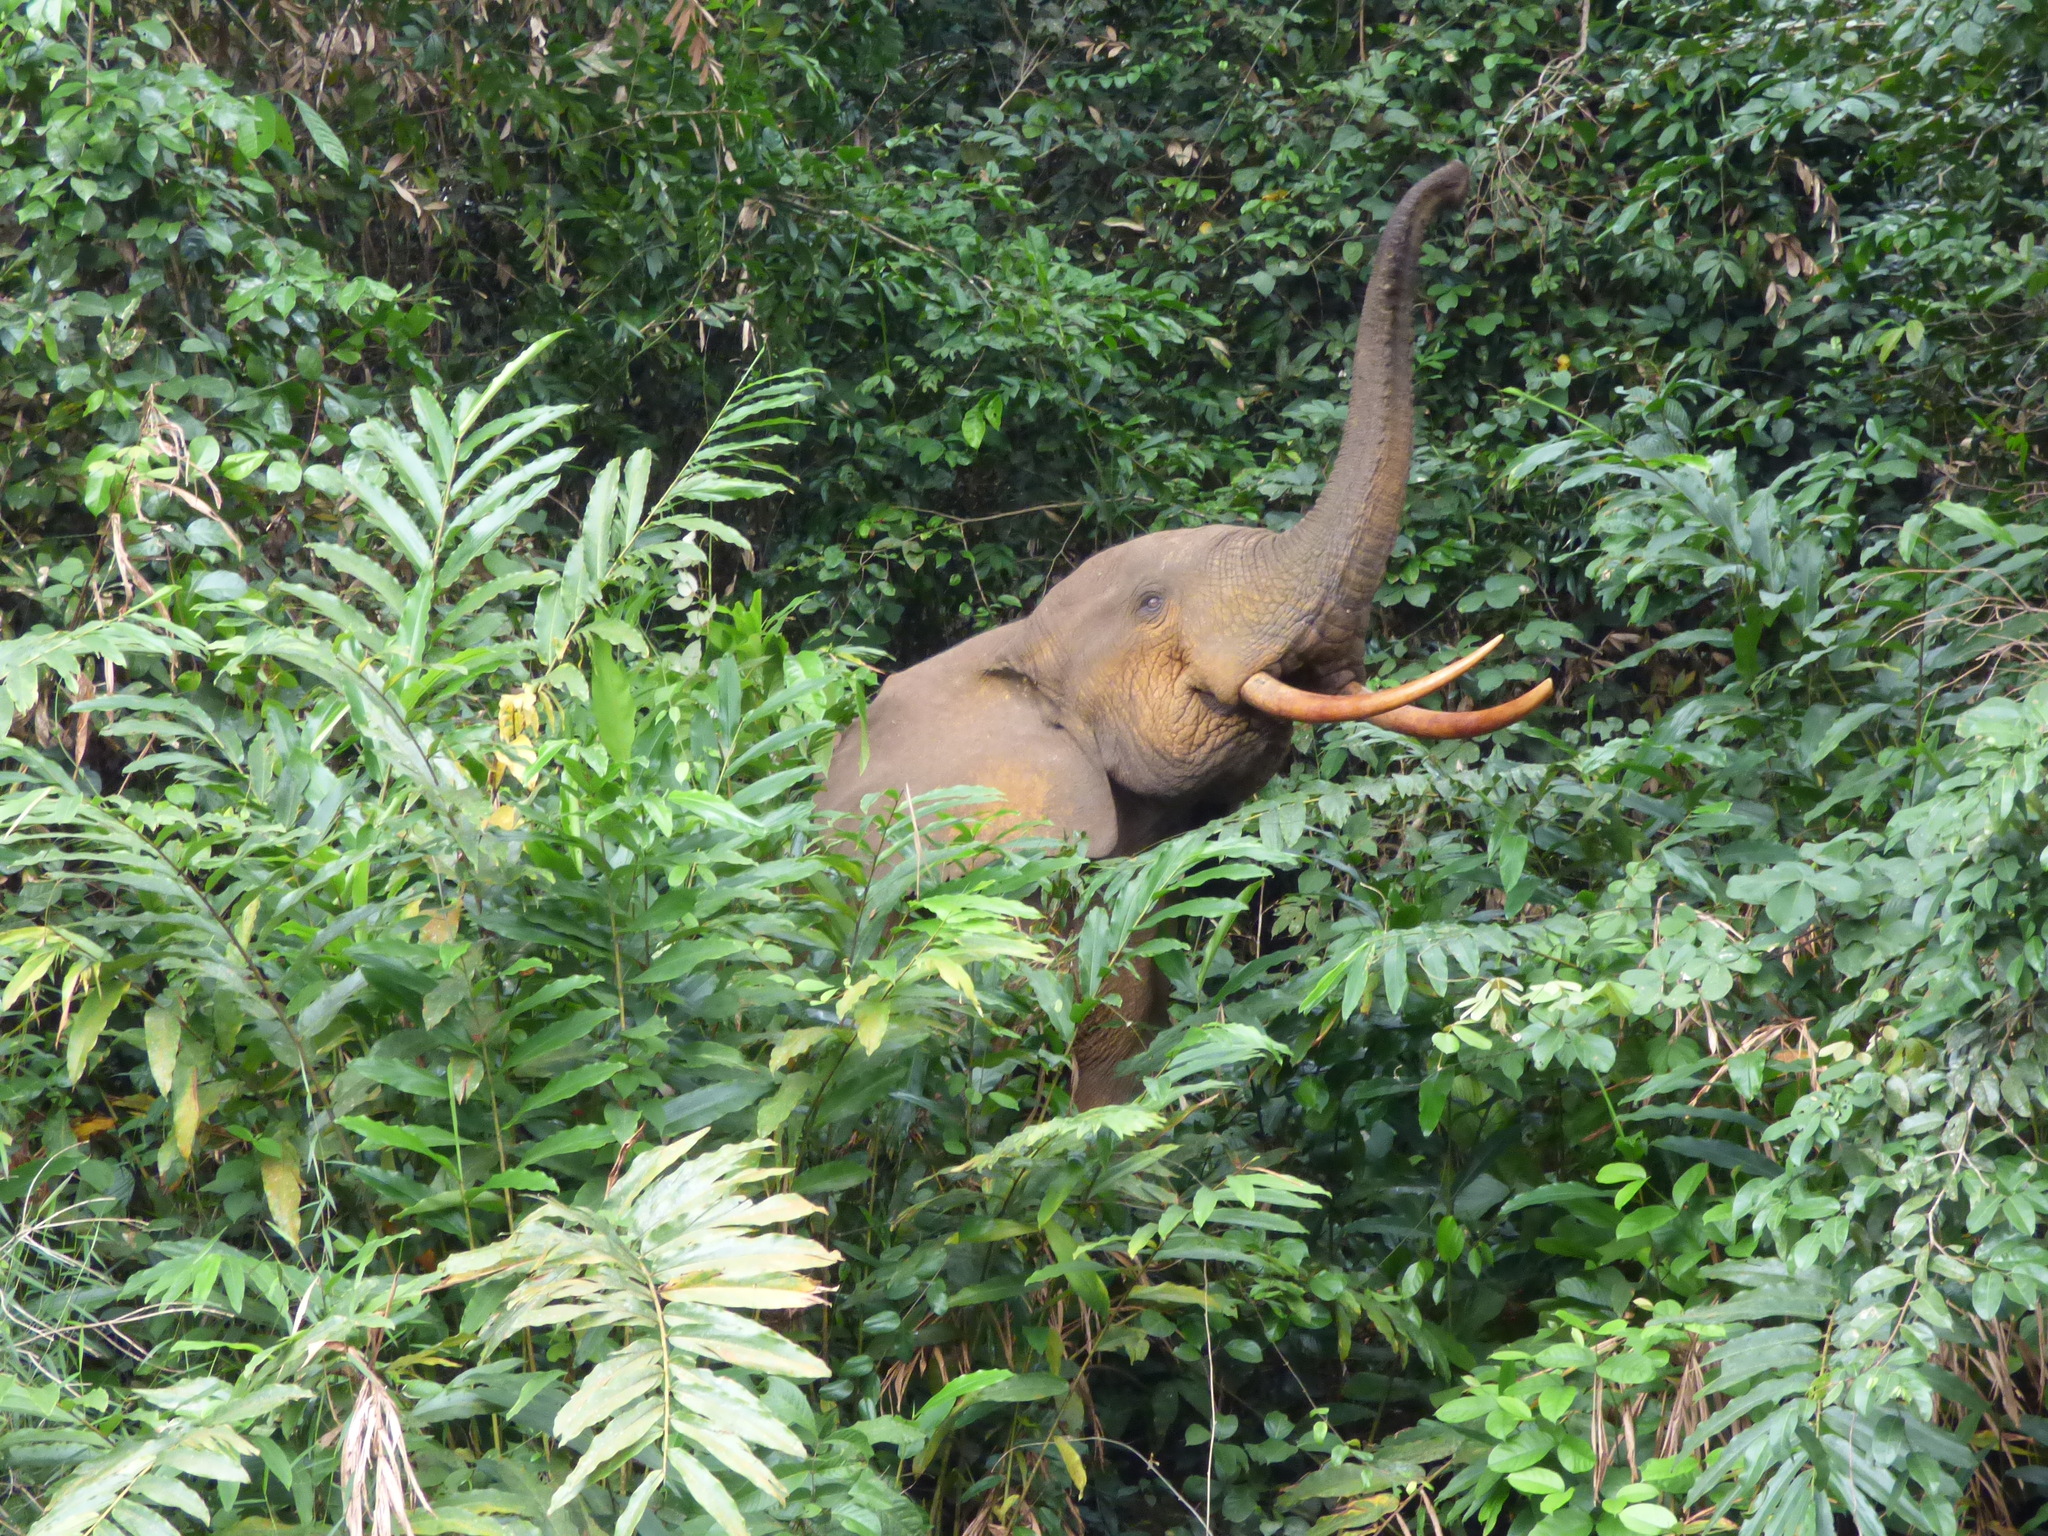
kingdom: Animalia
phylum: Chordata
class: Mammalia
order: Proboscidea
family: Elephantidae
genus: Loxodonta
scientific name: Loxodonta cyclotis
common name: African forest elephant
